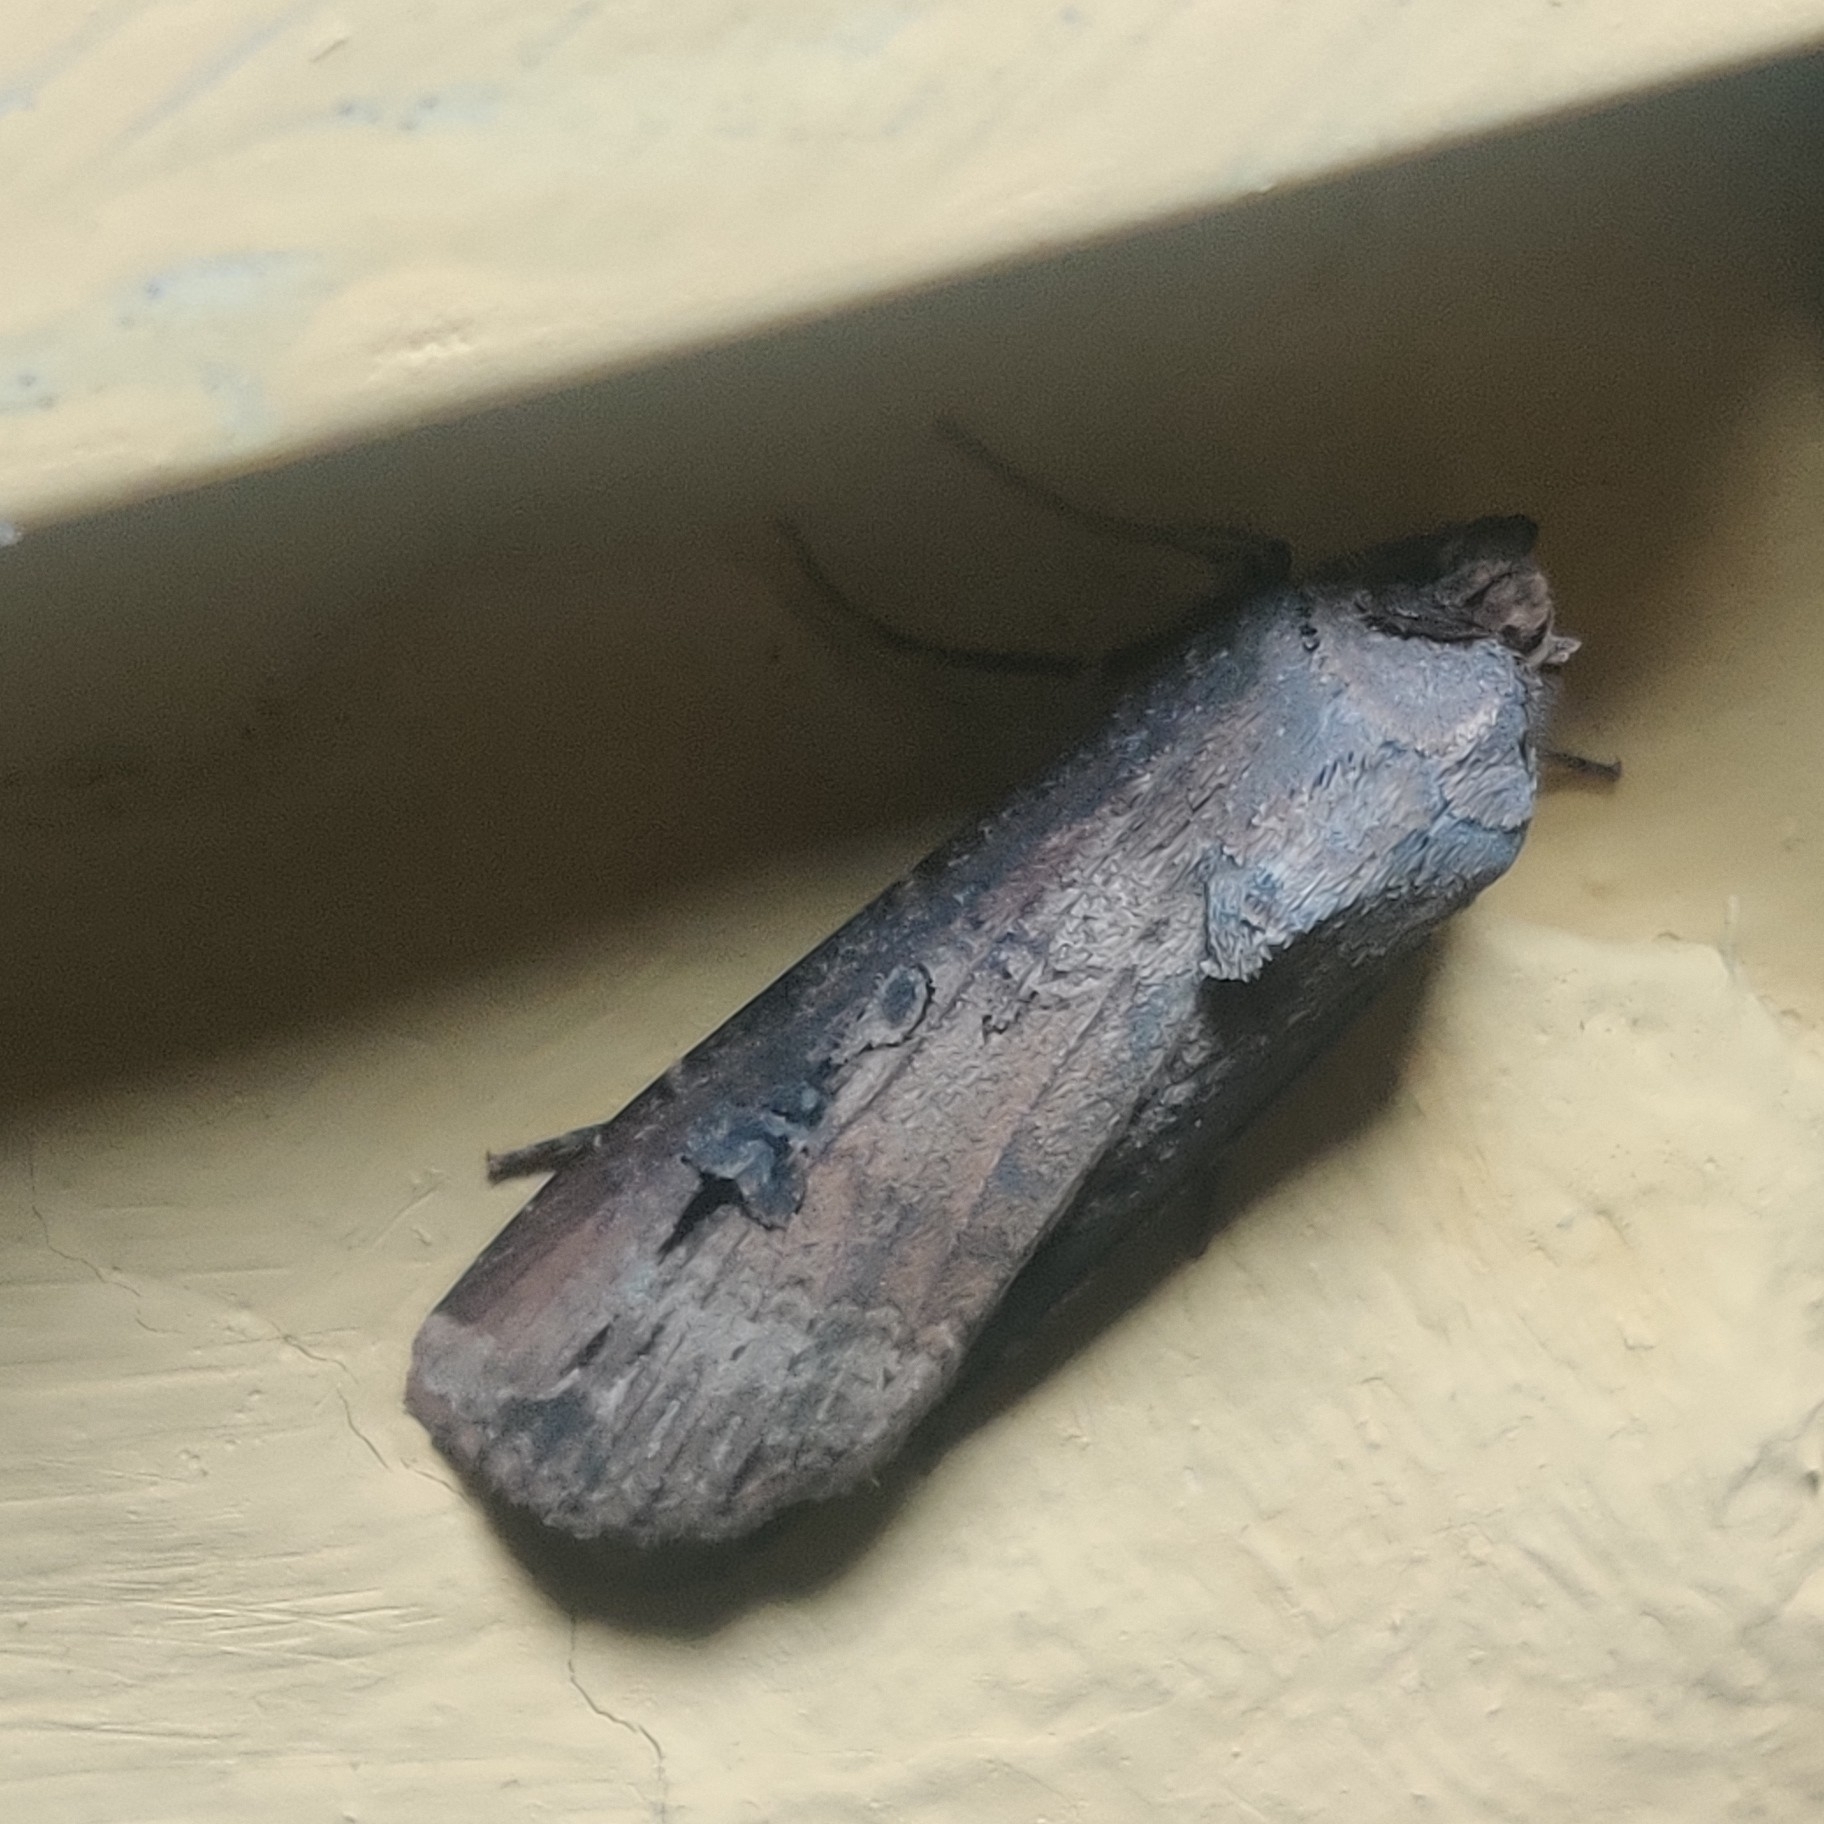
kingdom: Animalia
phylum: Arthropoda
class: Insecta
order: Lepidoptera
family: Noctuidae
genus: Agrotis
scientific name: Agrotis ipsilon
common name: Dark sword-grass
